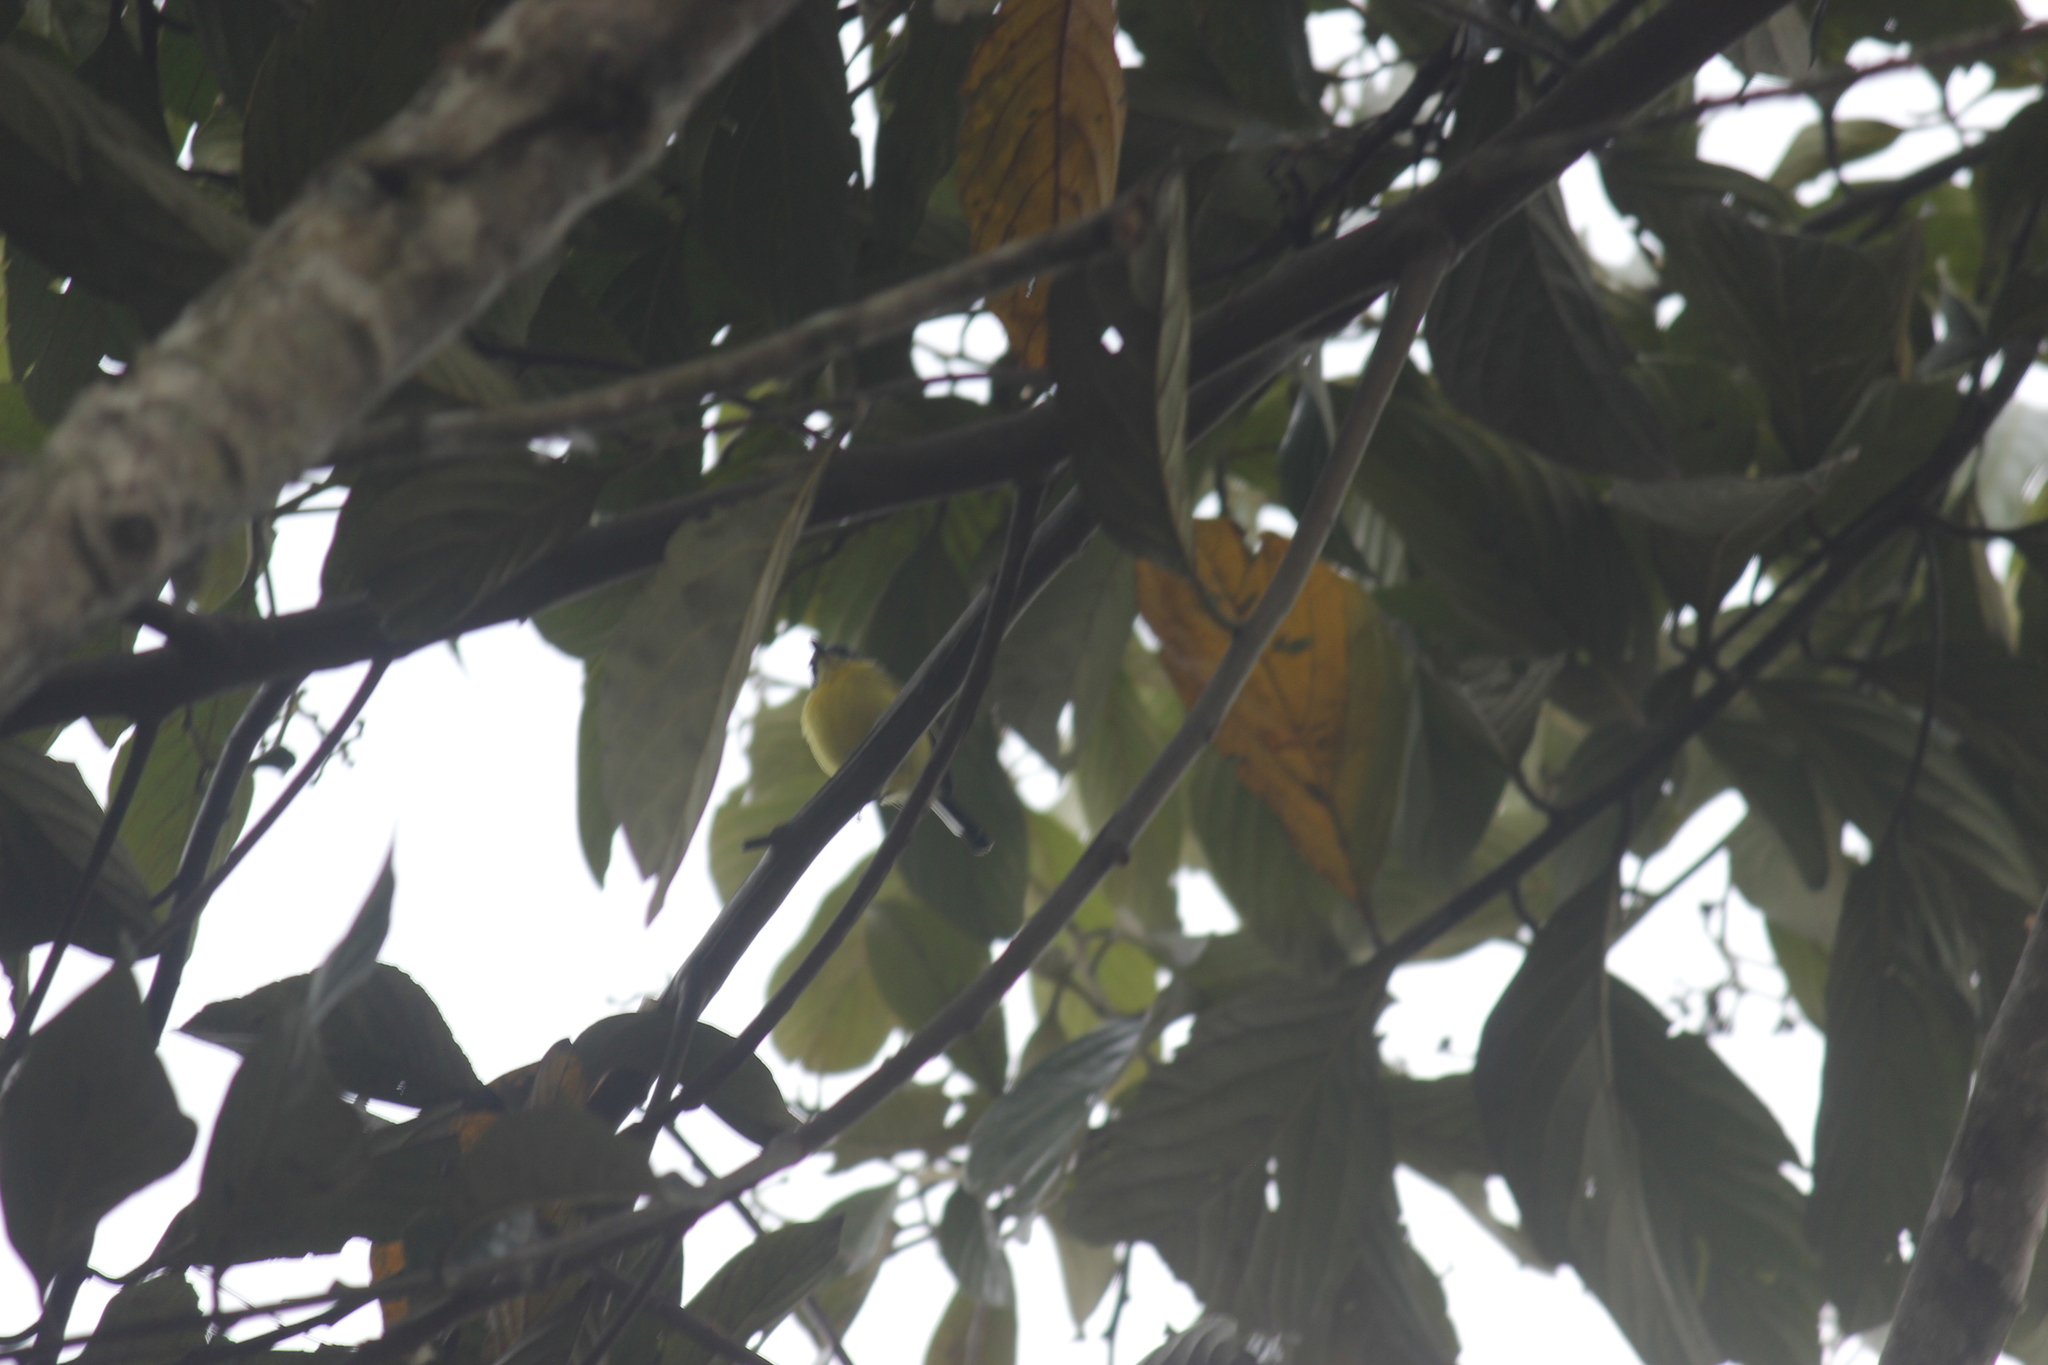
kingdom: Animalia
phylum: Chordata
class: Aves
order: Passeriformes
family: Tyrannidae
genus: Todirostrum
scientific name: Todirostrum cinereum
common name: Common tody-flycatcher
